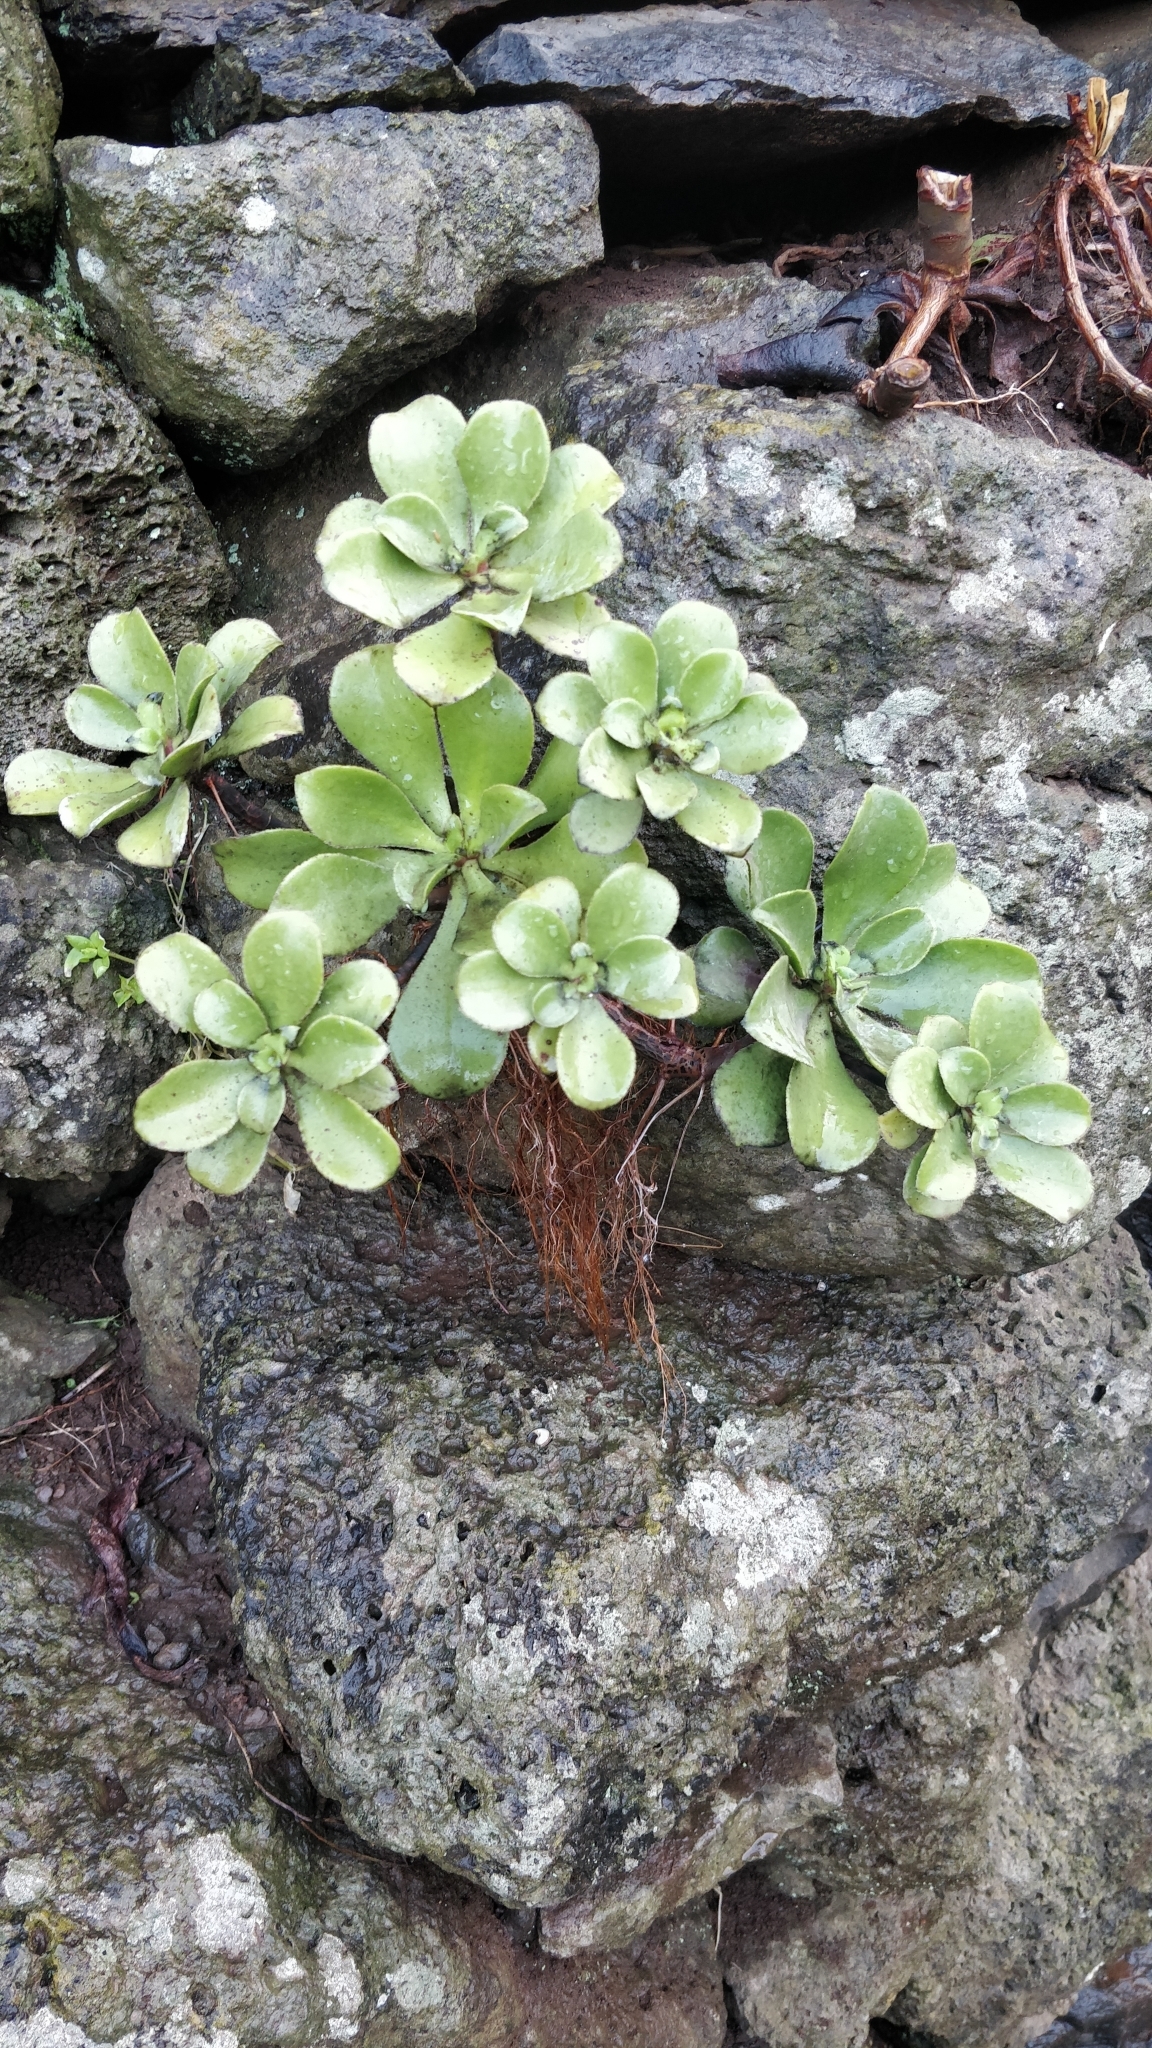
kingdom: Plantae
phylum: Tracheophyta
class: Magnoliopsida
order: Saxifragales
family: Crassulaceae
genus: Aeonium
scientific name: Aeonium glutinosum
